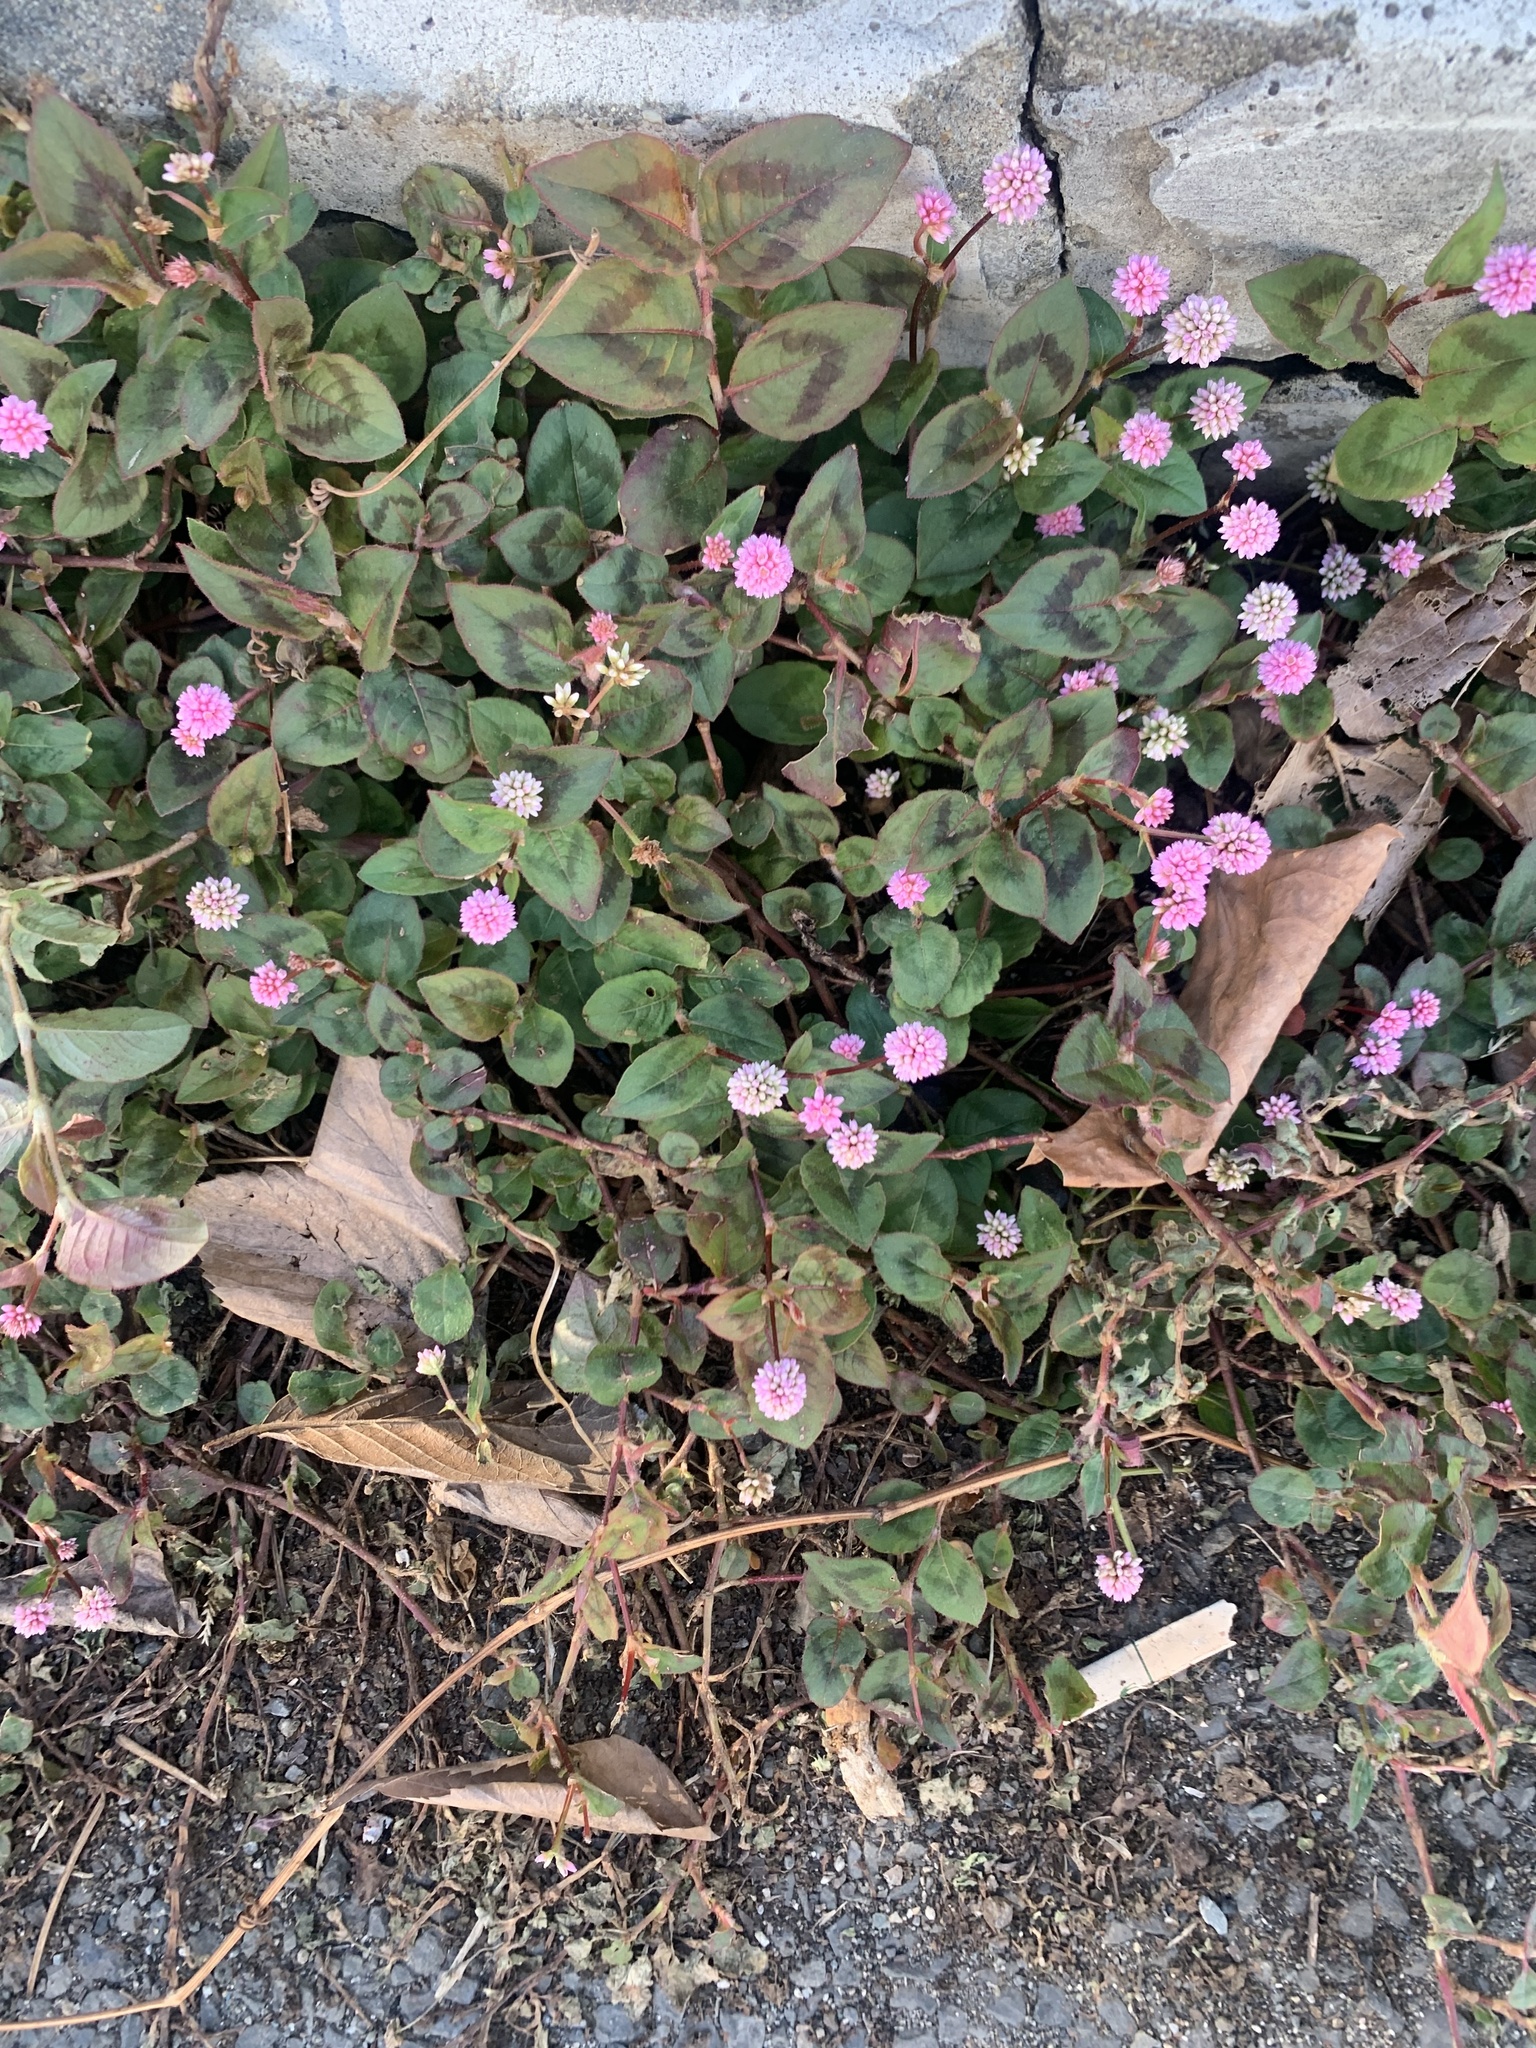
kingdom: Plantae
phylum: Tracheophyta
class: Magnoliopsida
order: Caryophyllales
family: Polygonaceae
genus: Persicaria
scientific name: Persicaria capitata
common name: Pinkhead smartweed
